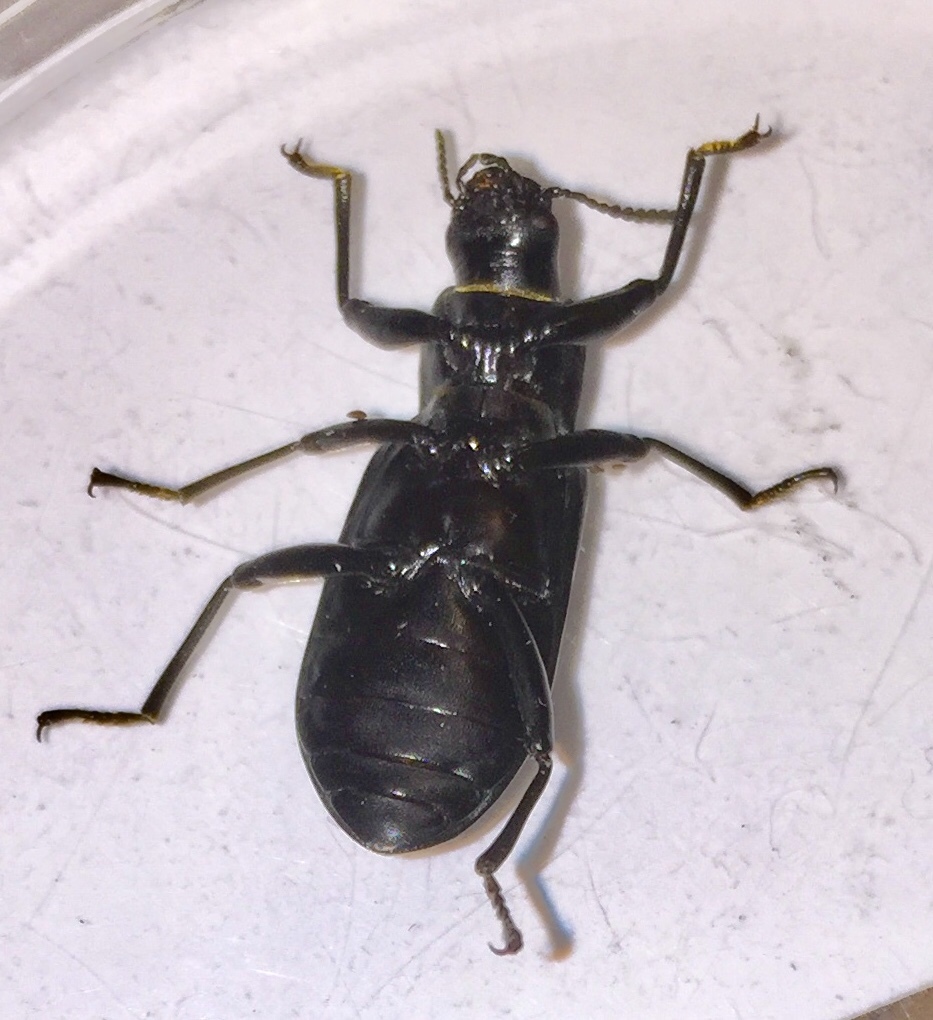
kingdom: Animalia
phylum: Arthropoda
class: Insecta
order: Coleoptera
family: Tenebrionidae
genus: Alobates
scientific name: Alobates pensylvanicus
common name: False mealworm beetle
